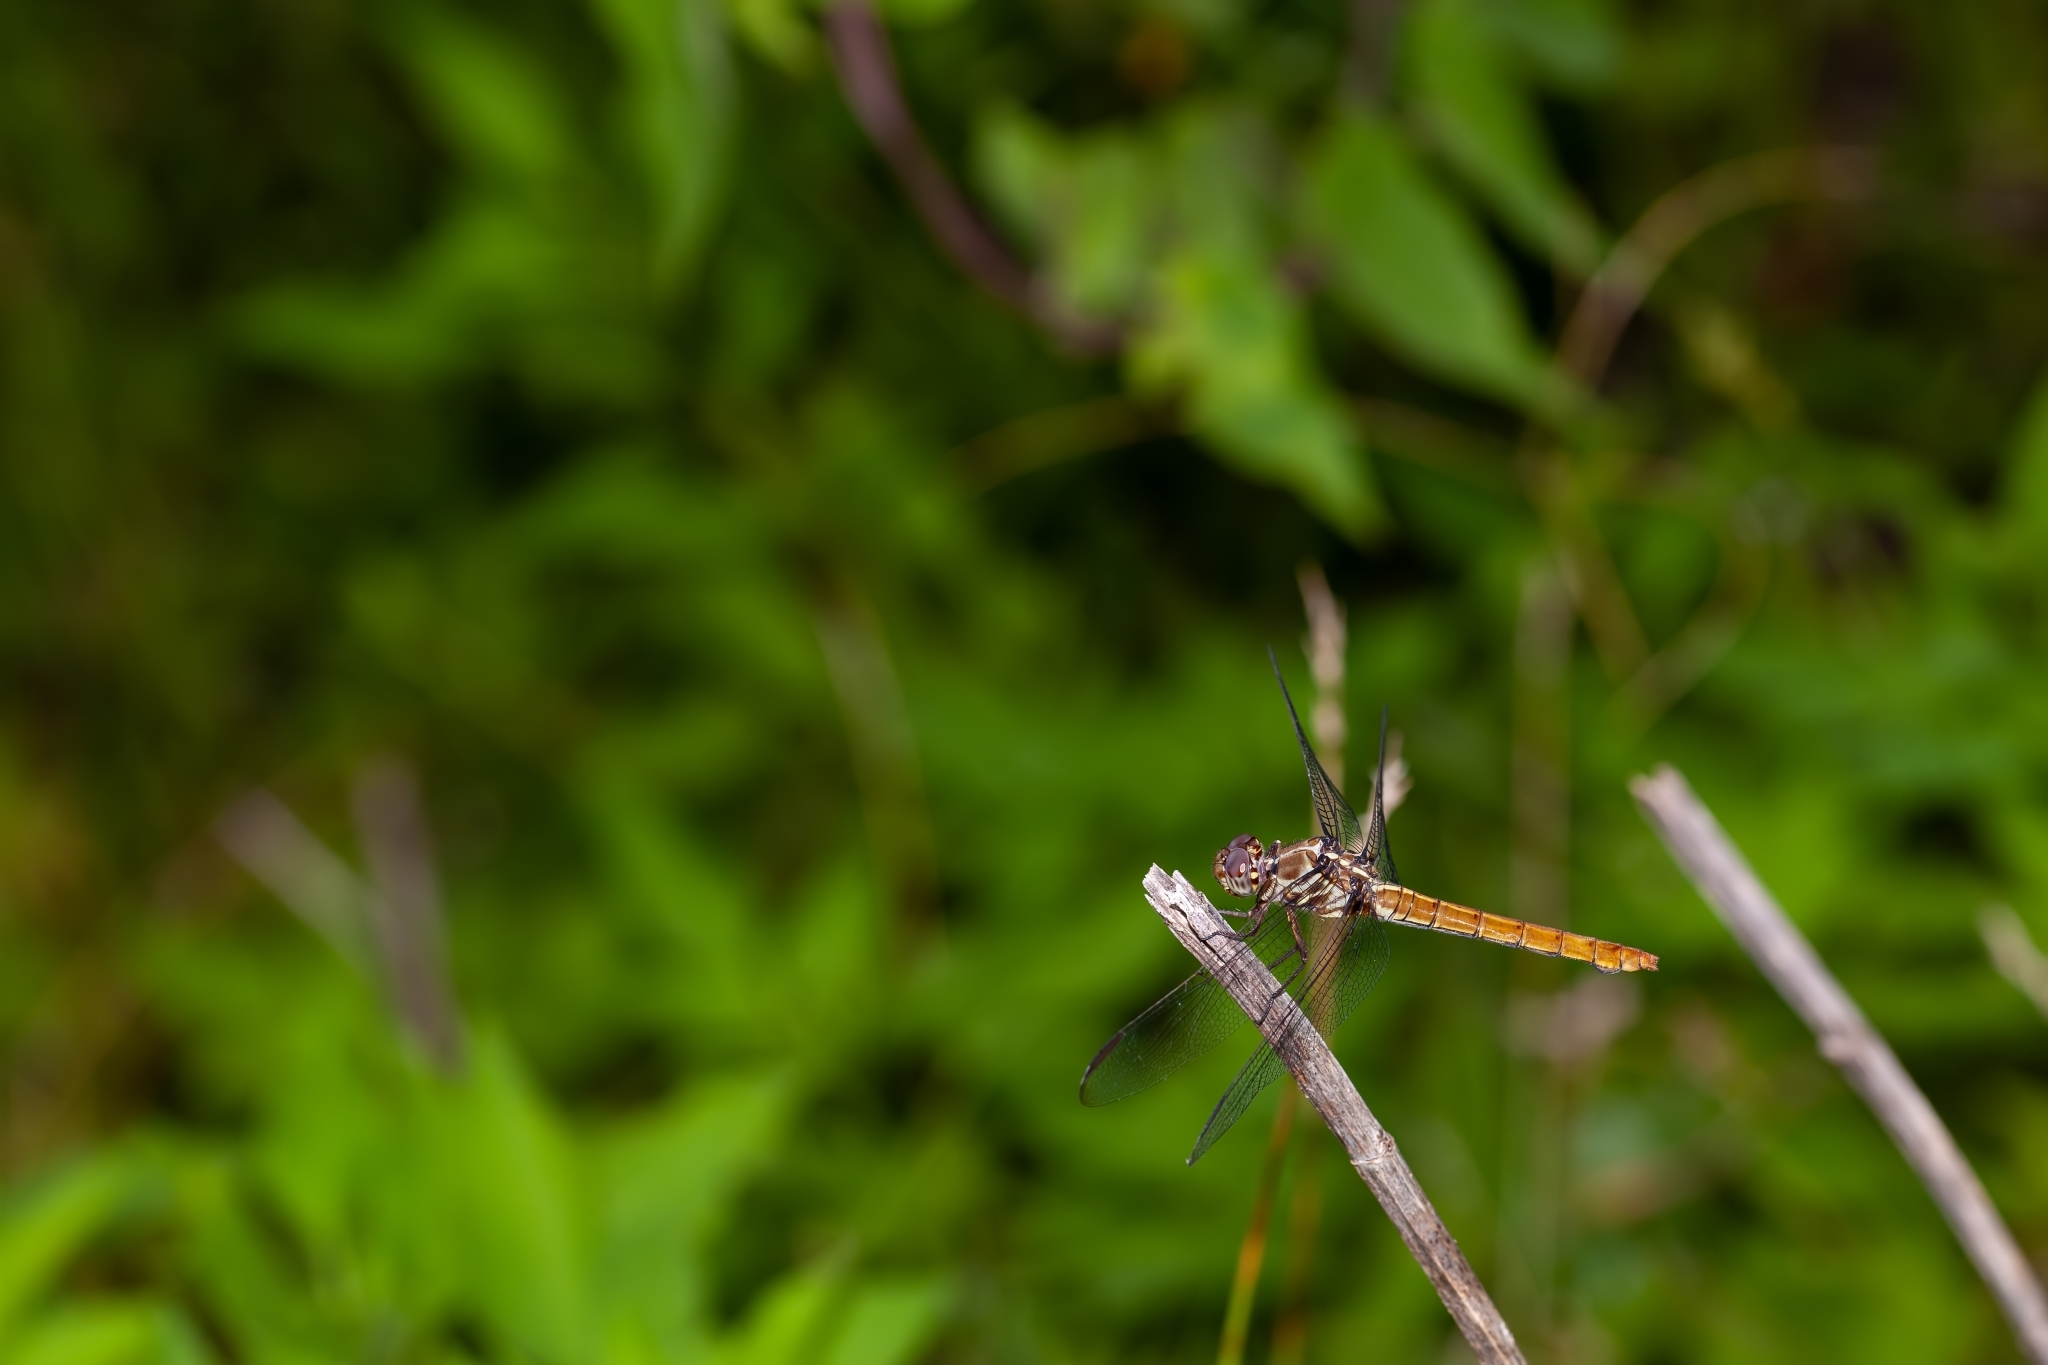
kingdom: Animalia
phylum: Arthropoda
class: Insecta
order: Odonata
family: Libellulidae
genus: Orthemis
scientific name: Orthemis ferruginea
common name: Roseate skimmer
